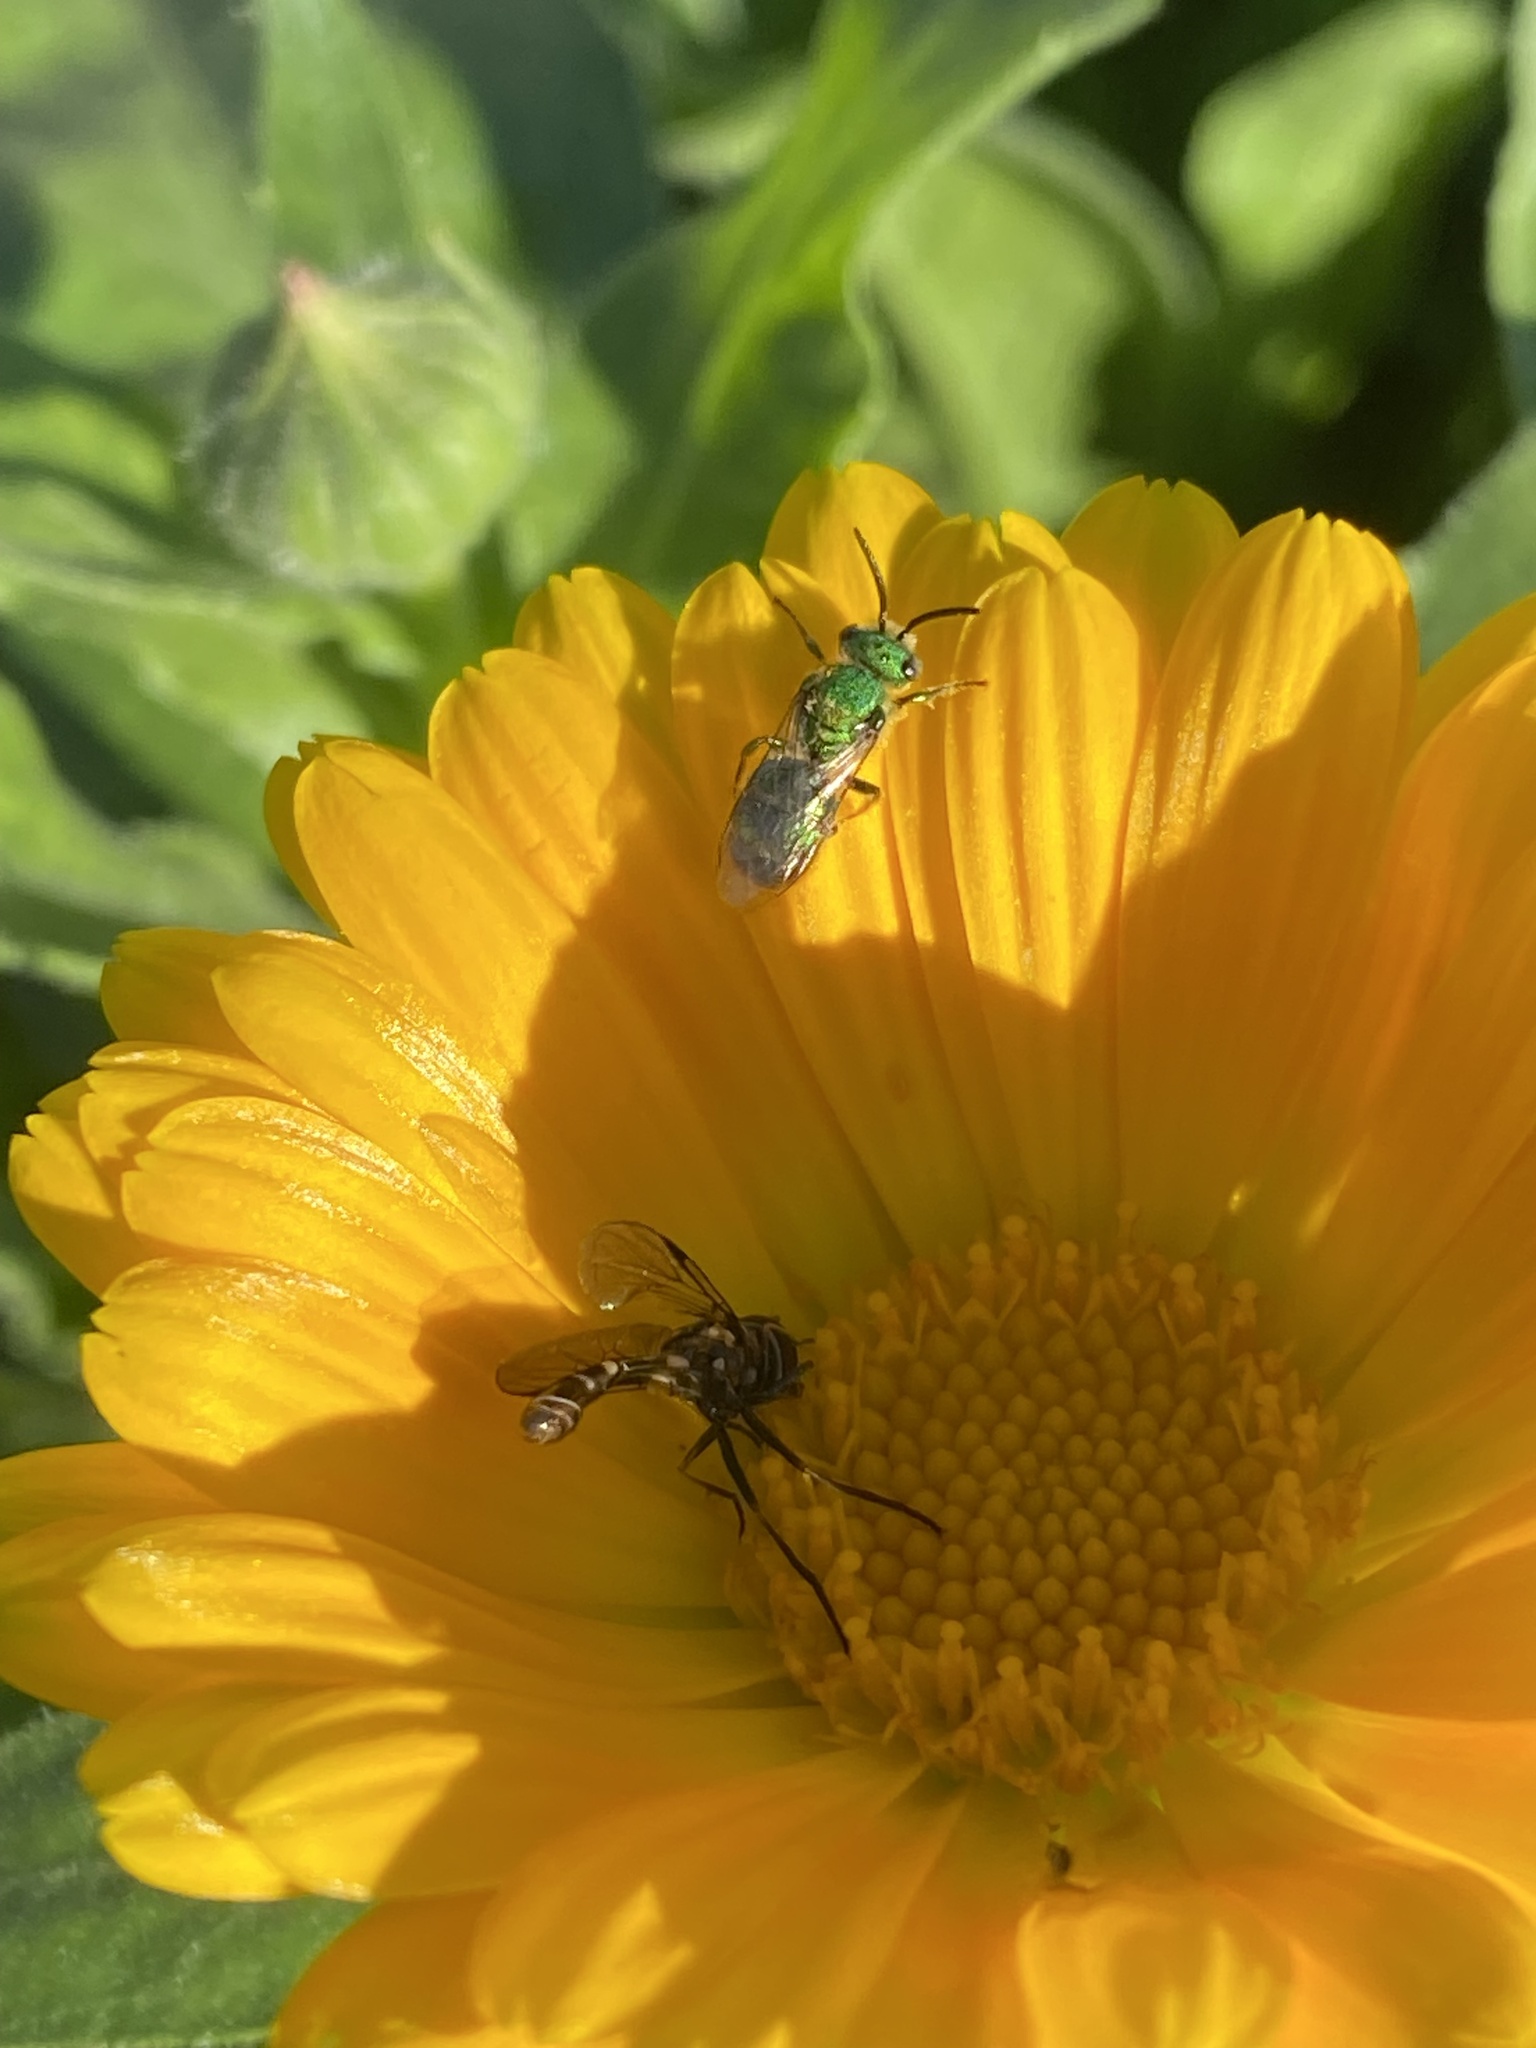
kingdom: Animalia
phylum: Arthropoda
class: Insecta
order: Diptera
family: Syrphidae
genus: Dioprosopa
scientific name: Dioprosopa clavatus
